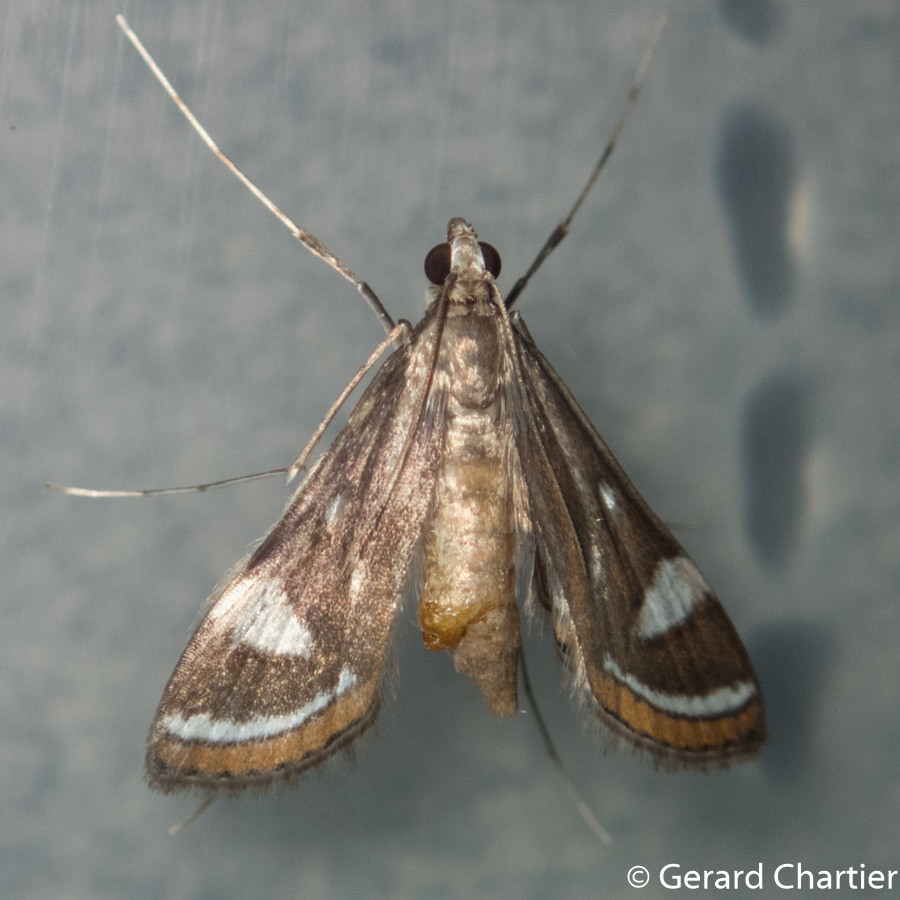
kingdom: Animalia
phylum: Arthropoda
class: Insecta
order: Lepidoptera
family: Crambidae
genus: Strepsinoma
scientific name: Strepsinoma croesusalis
